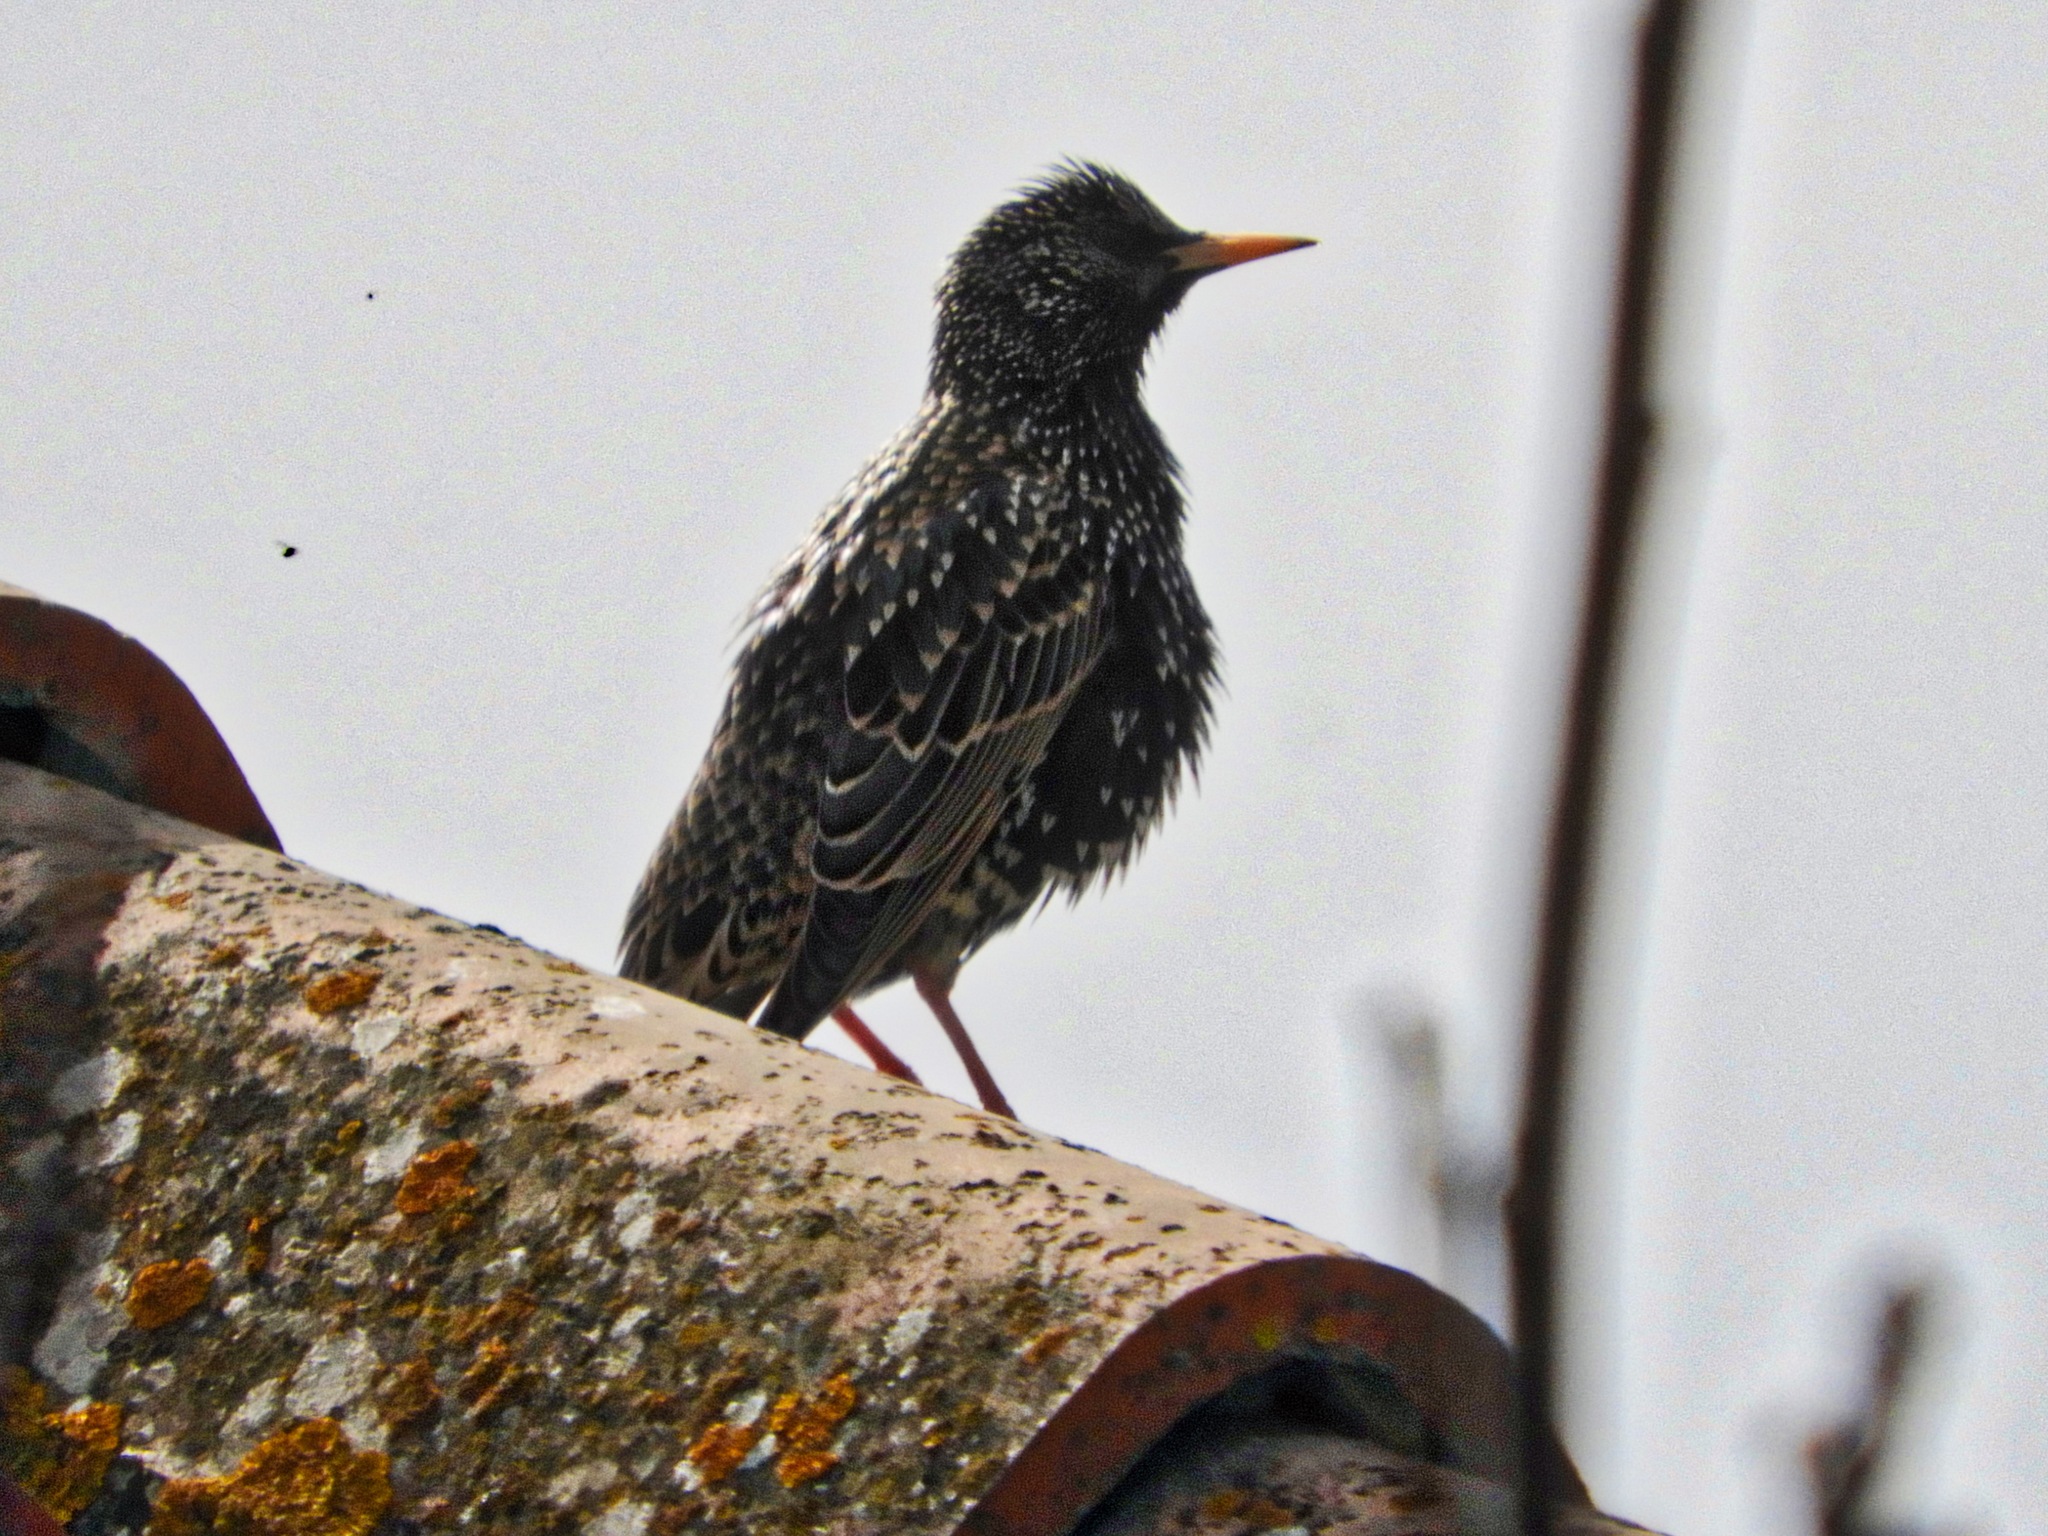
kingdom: Animalia
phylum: Chordata
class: Aves
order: Passeriformes
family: Sturnidae
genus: Sturnus
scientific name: Sturnus vulgaris
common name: Common starling
